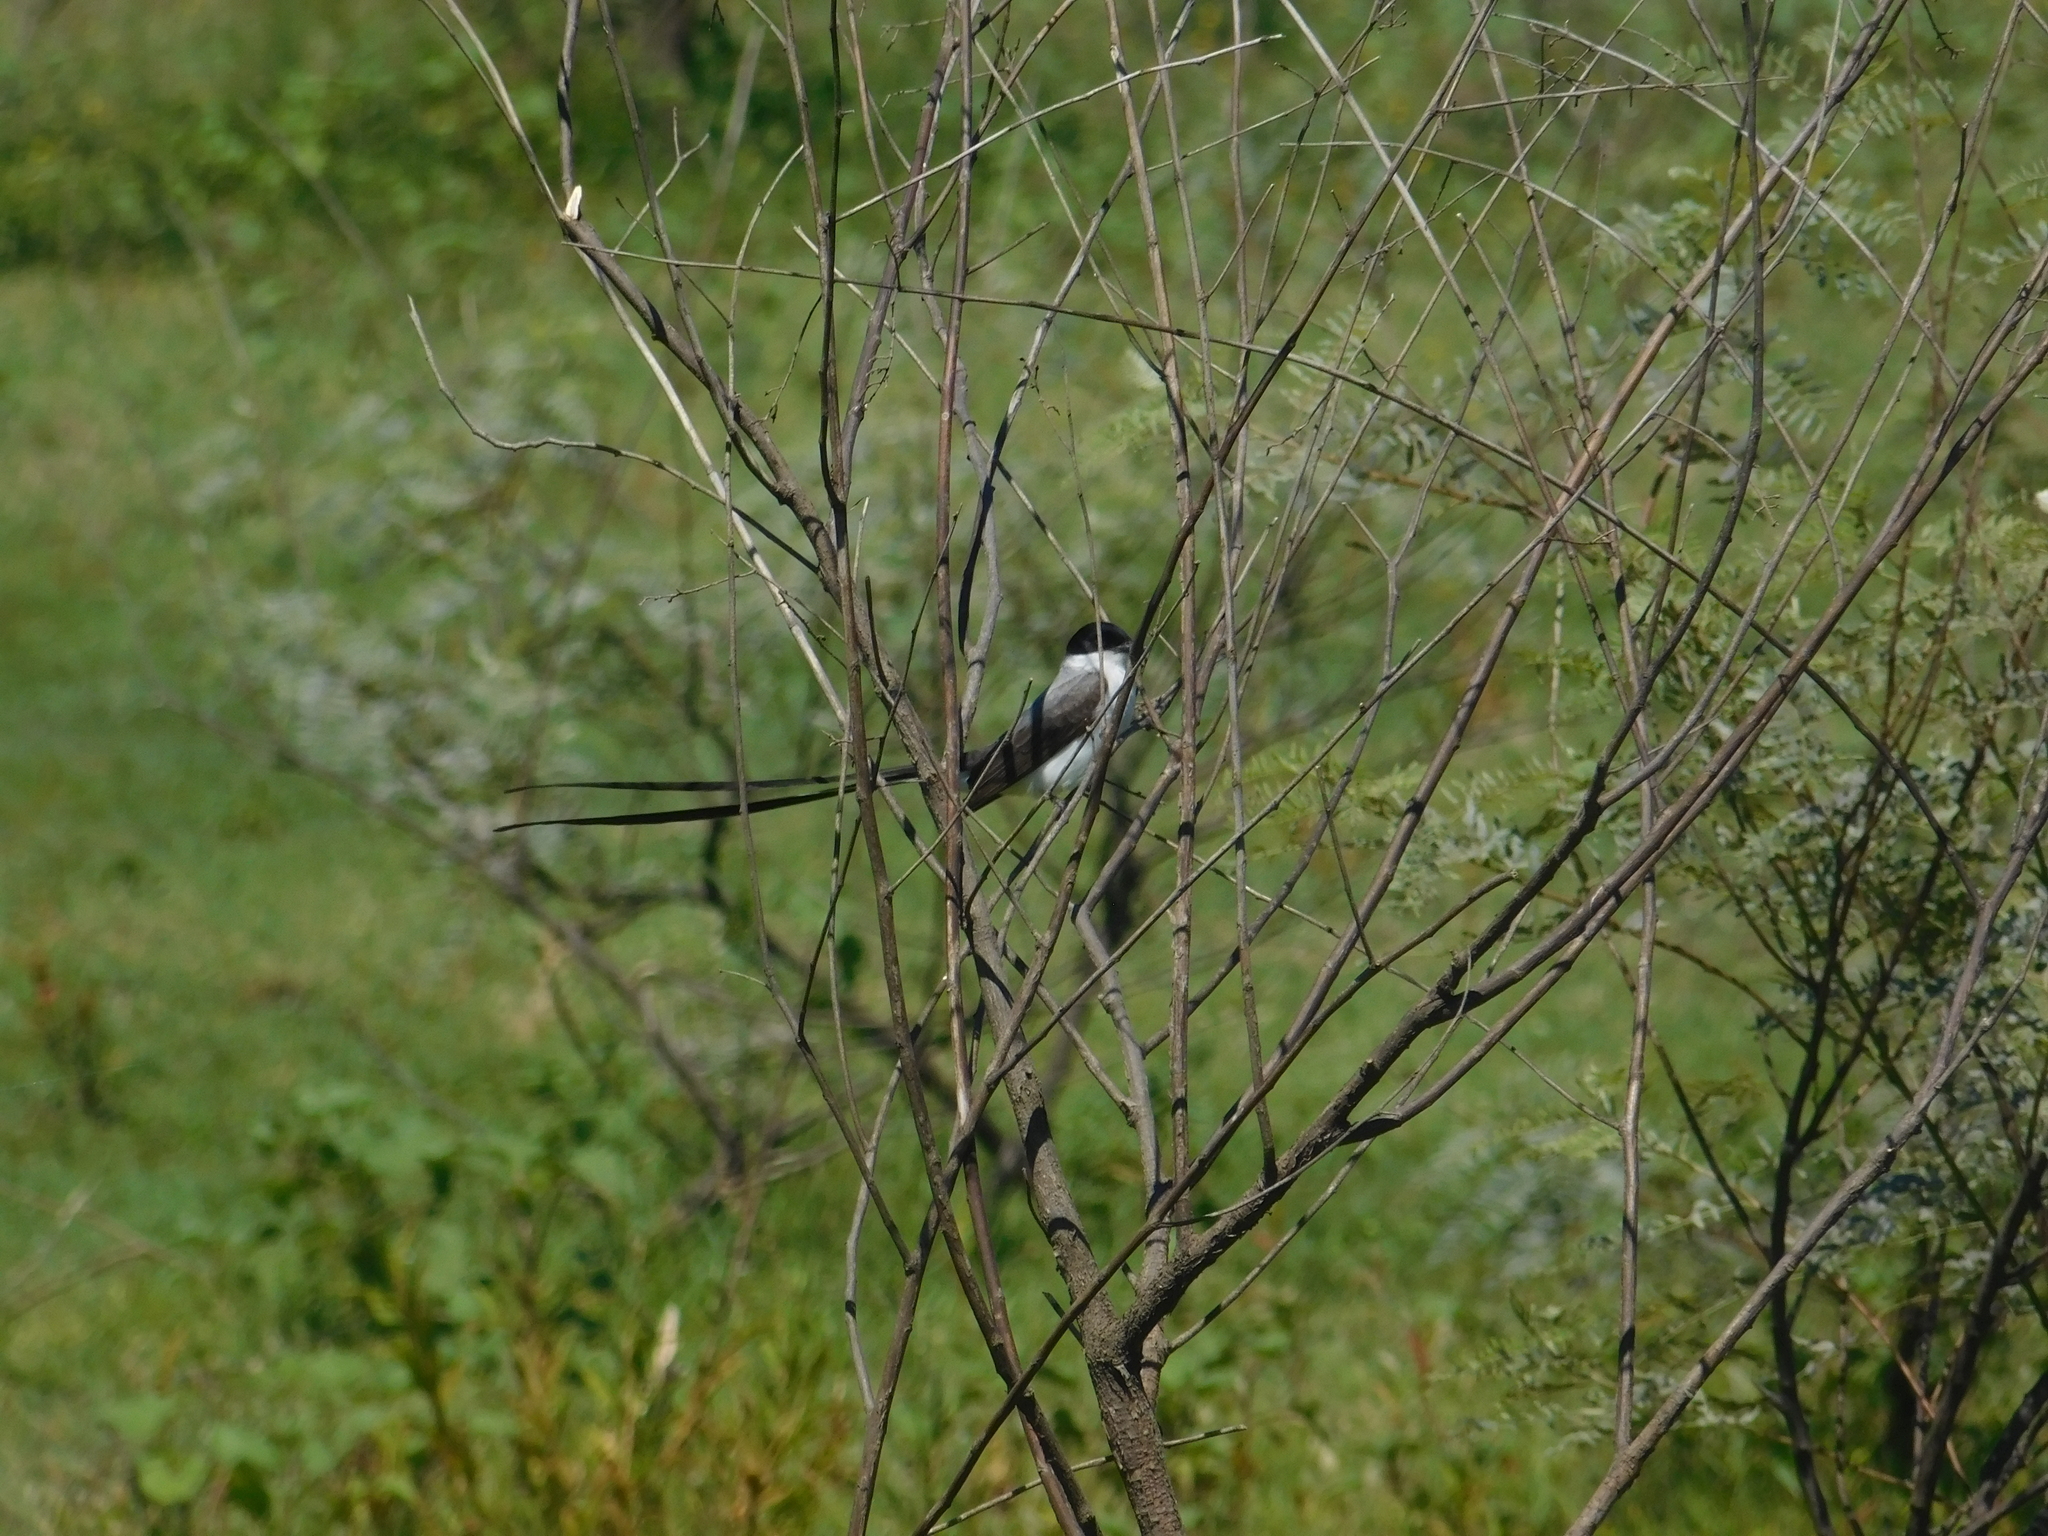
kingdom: Animalia
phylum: Chordata
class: Aves
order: Passeriformes
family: Tyrannidae
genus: Tyrannus
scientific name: Tyrannus savana
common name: Fork-tailed flycatcher
